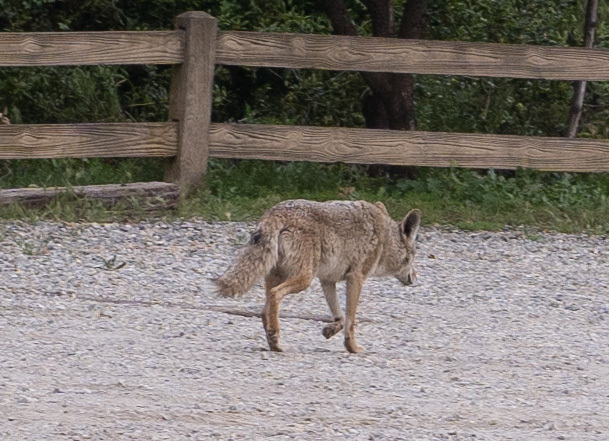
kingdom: Animalia
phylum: Chordata
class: Mammalia
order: Carnivora
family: Canidae
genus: Canis
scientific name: Canis latrans
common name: Coyote
